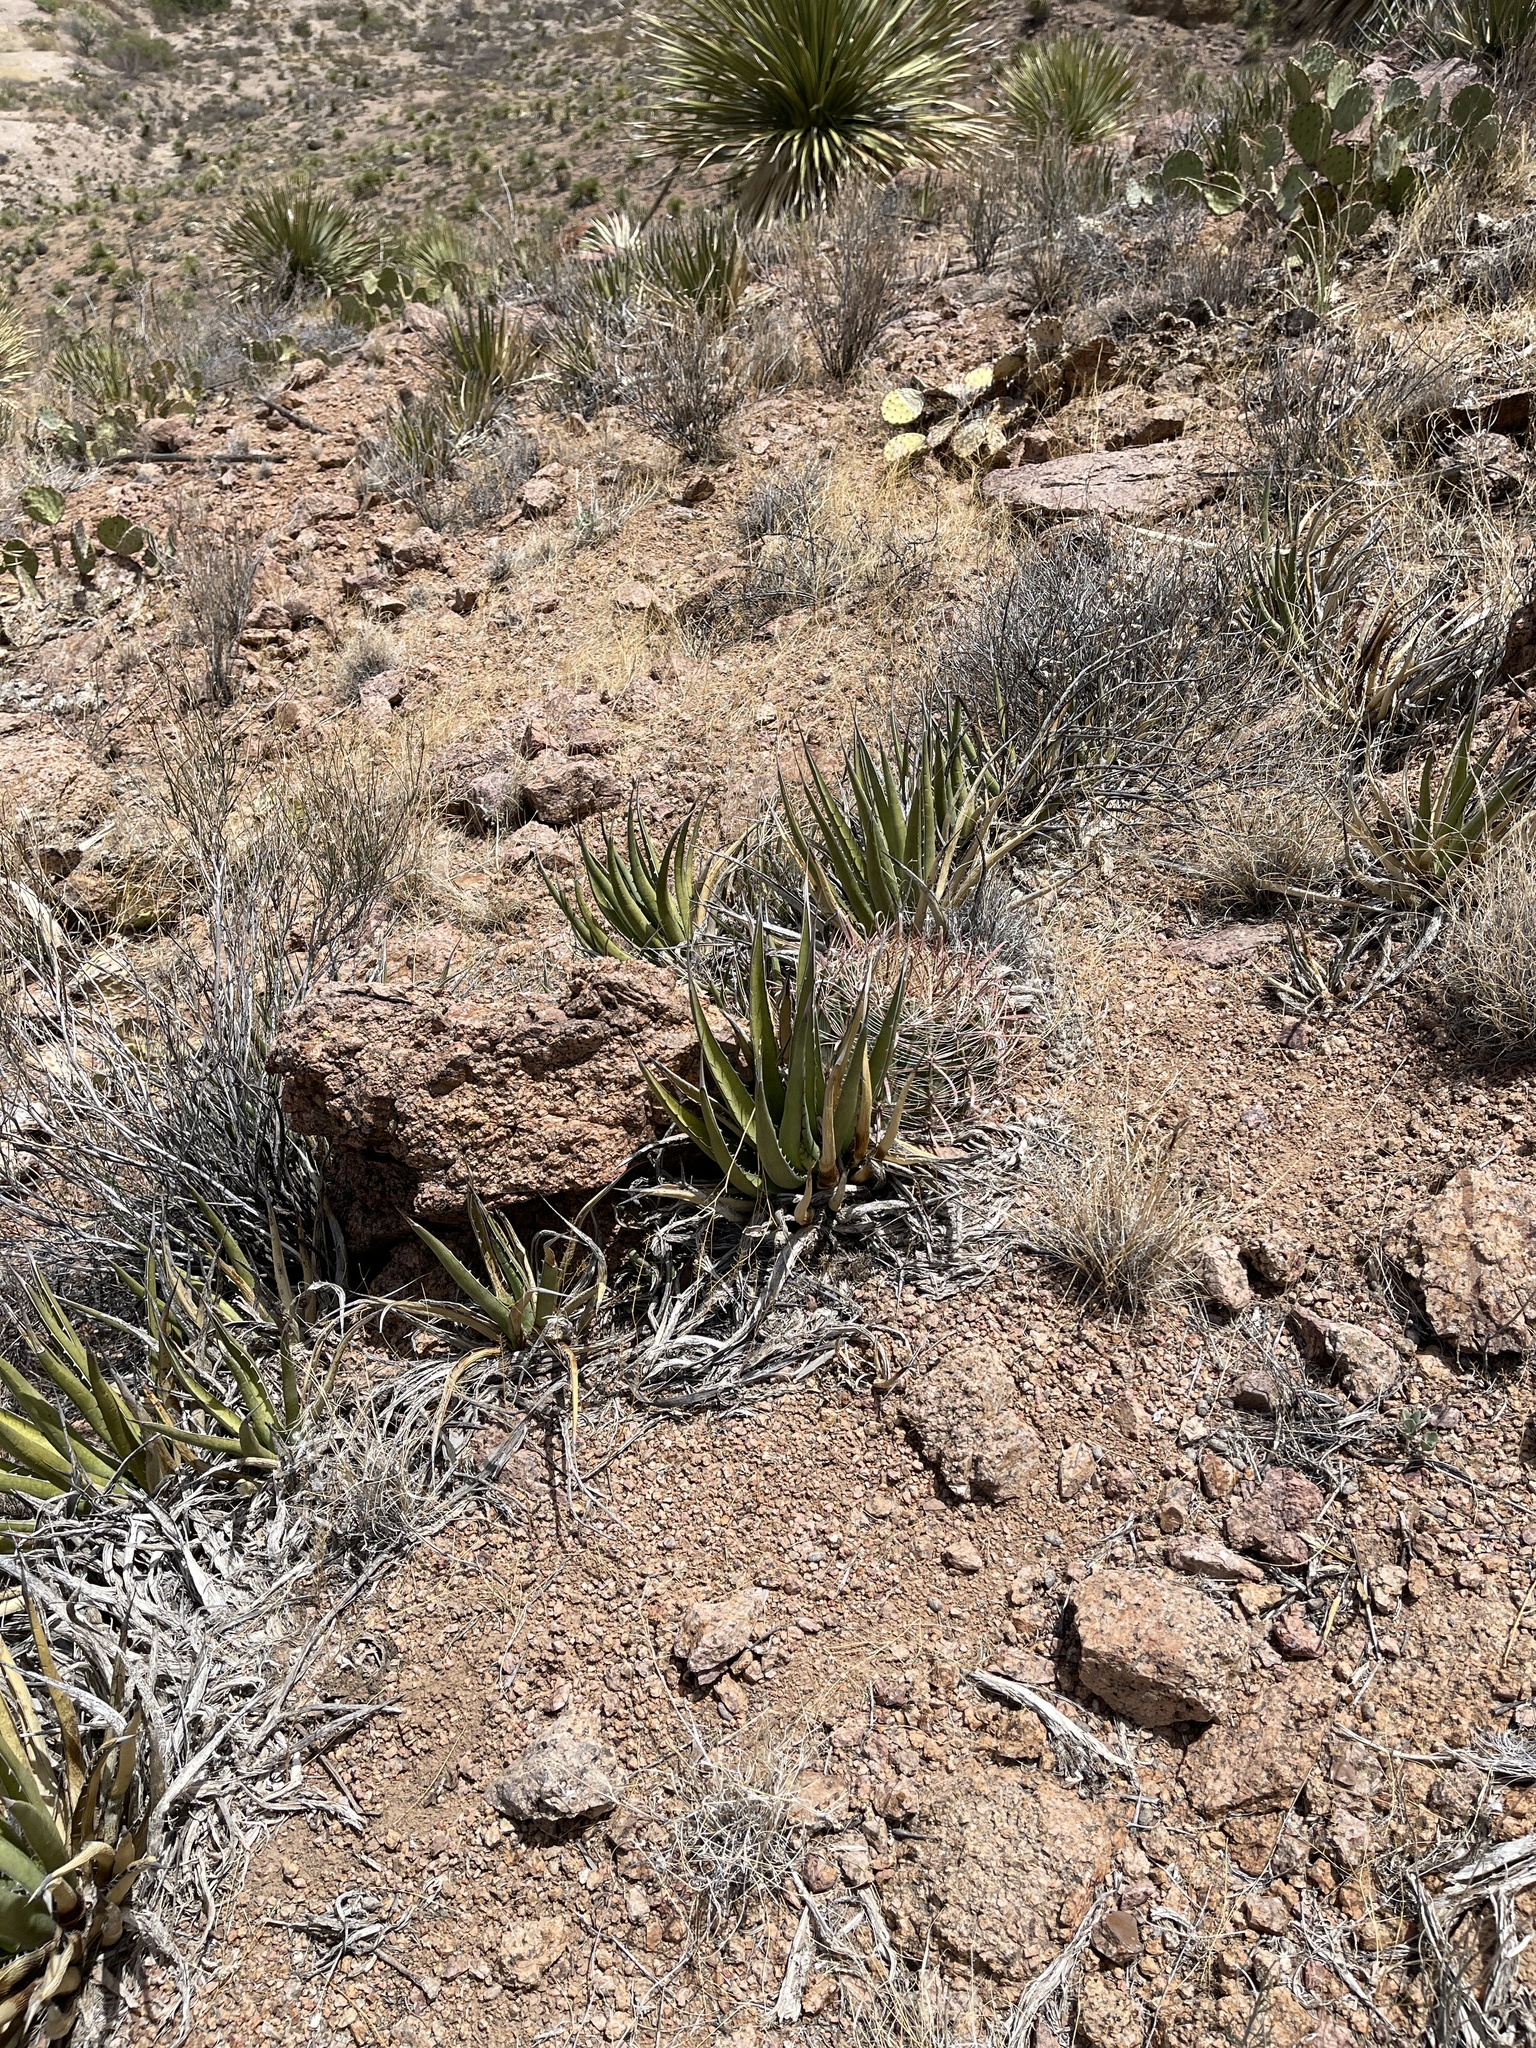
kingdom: Plantae
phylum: Tracheophyta
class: Liliopsida
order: Asparagales
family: Asparagaceae
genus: Agave
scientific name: Agave lechuguilla
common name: Lecheguilla agave
